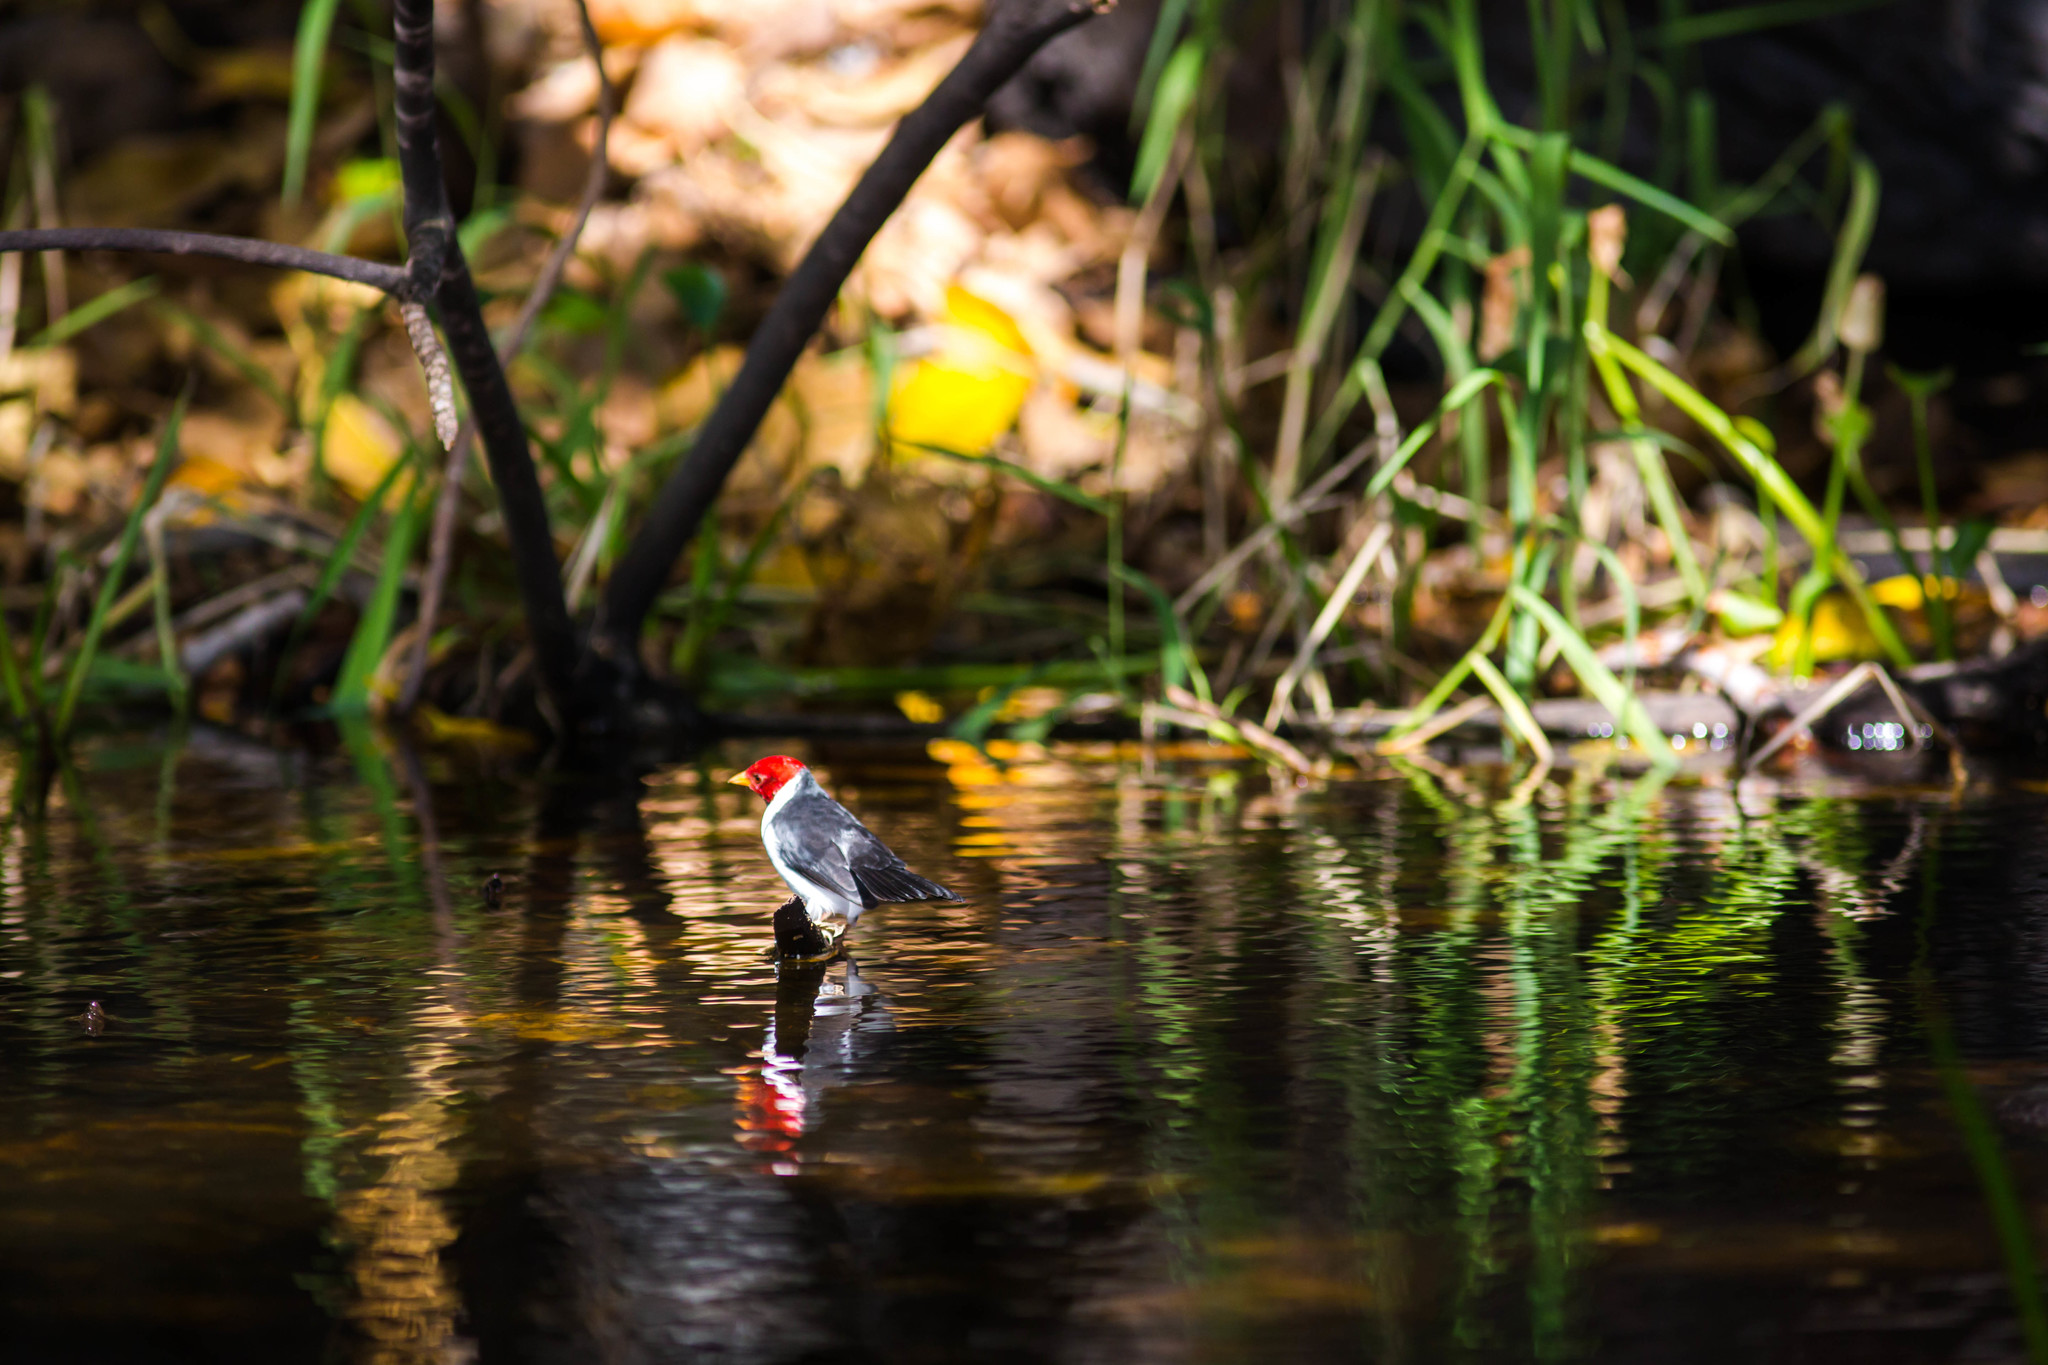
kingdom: Animalia
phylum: Chordata
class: Aves
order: Passeriformes
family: Thraupidae
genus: Paroaria
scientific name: Paroaria capitata
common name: Yellow-billed cardinal
